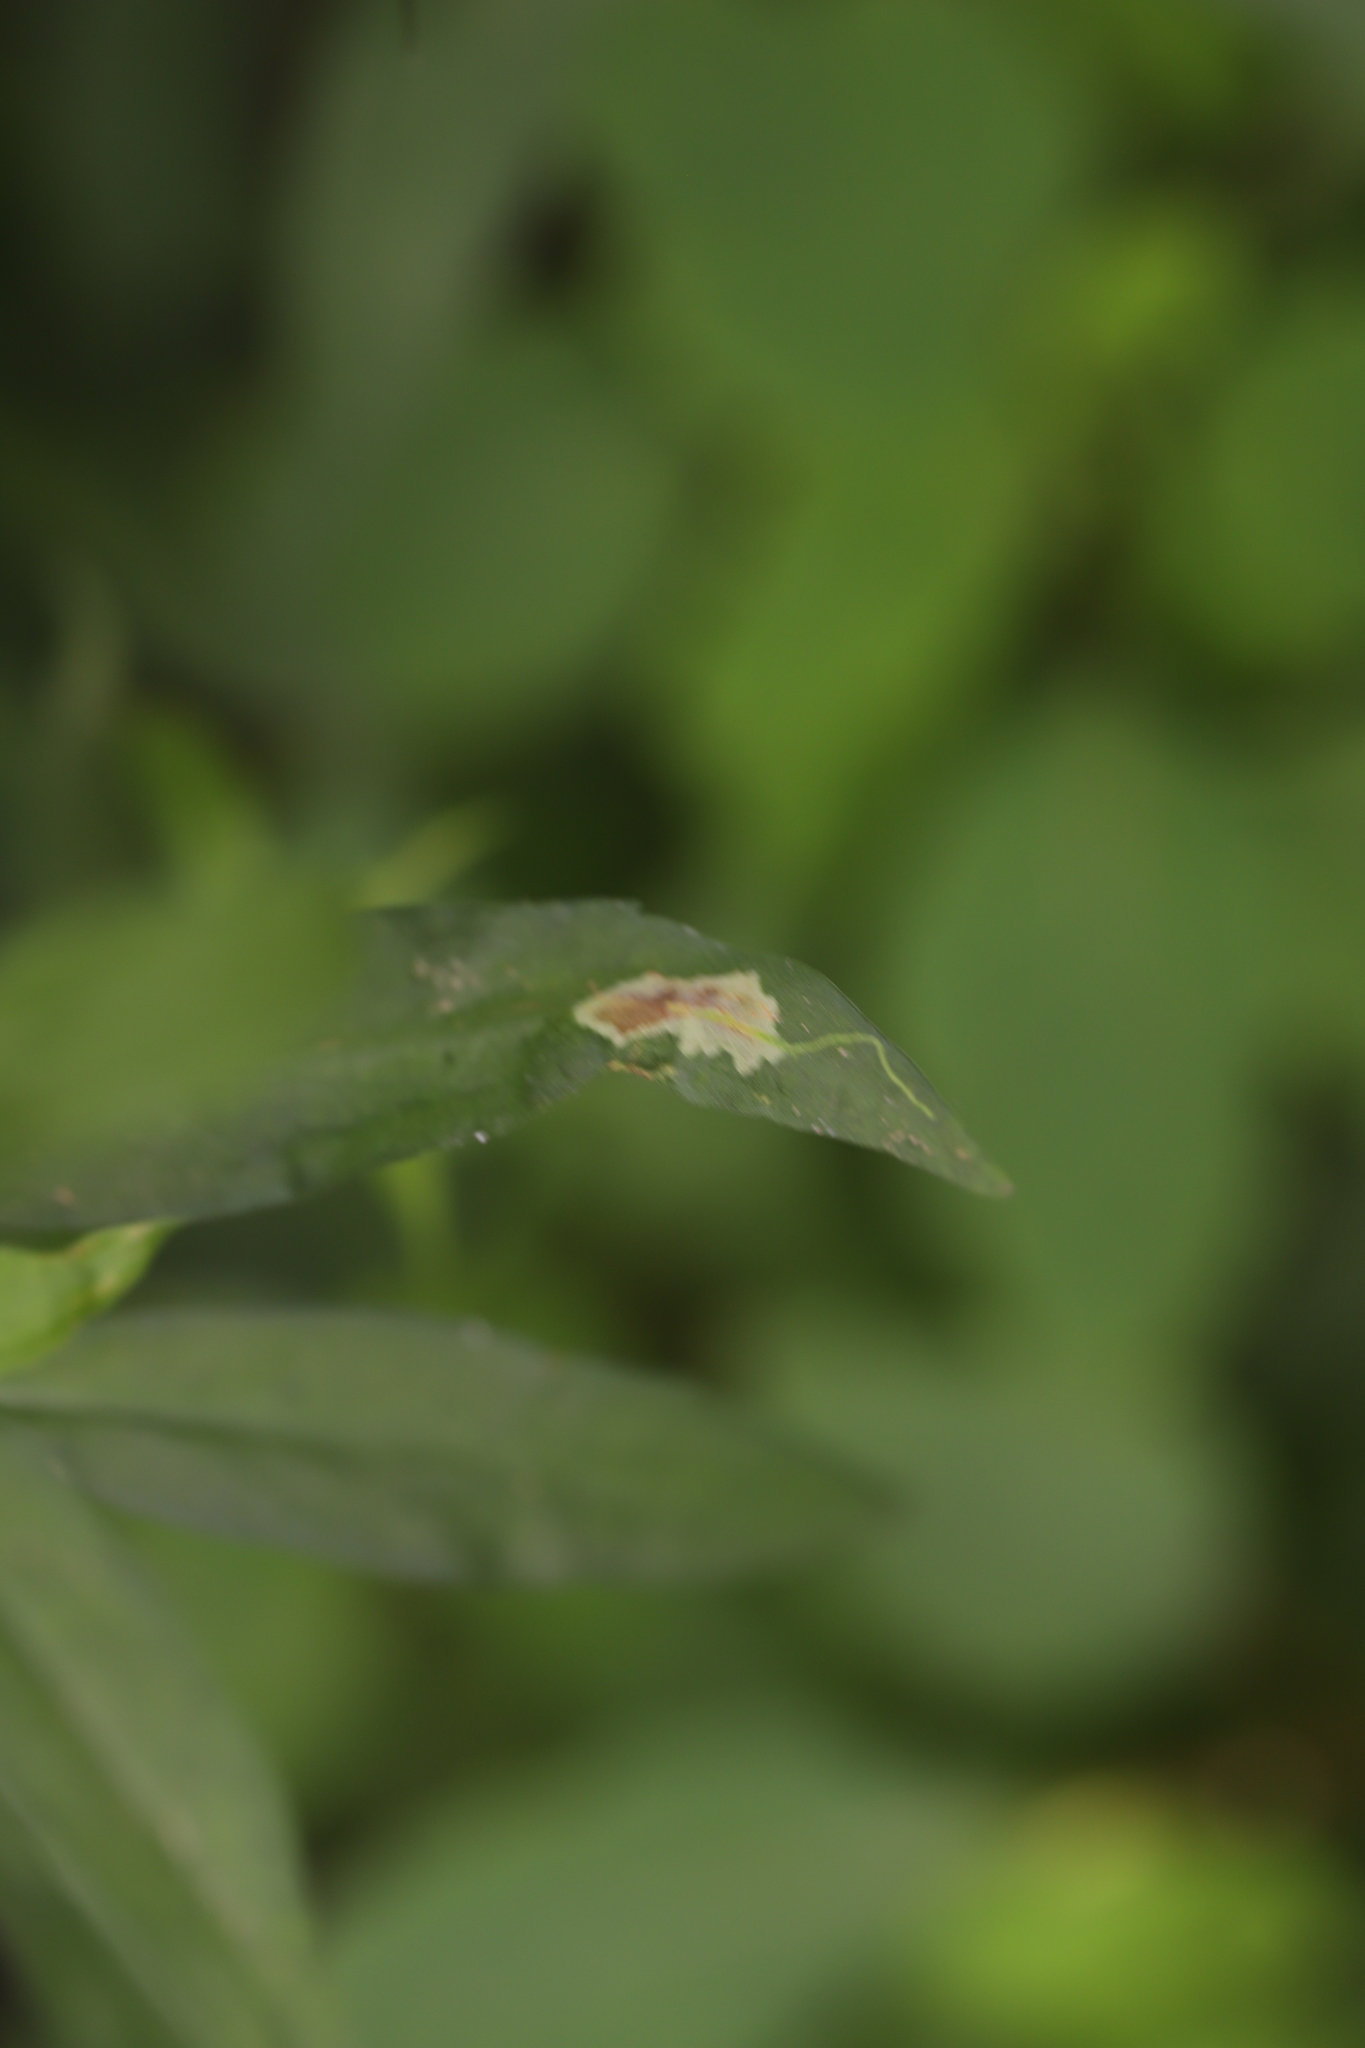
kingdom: Animalia
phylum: Arthropoda
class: Insecta
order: Diptera
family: Agromyzidae
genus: Calycomyza
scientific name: Calycomyza promissa
